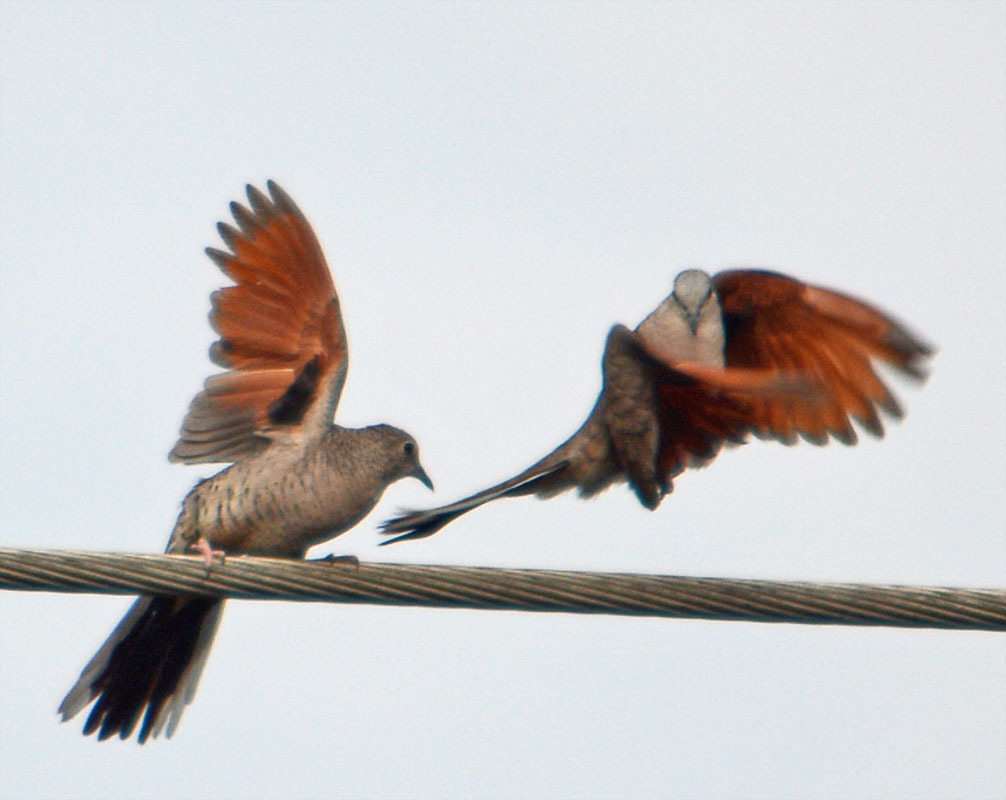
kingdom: Animalia
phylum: Chordata
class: Aves
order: Columbiformes
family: Columbidae
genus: Columbina
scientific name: Columbina inca
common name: Inca dove
